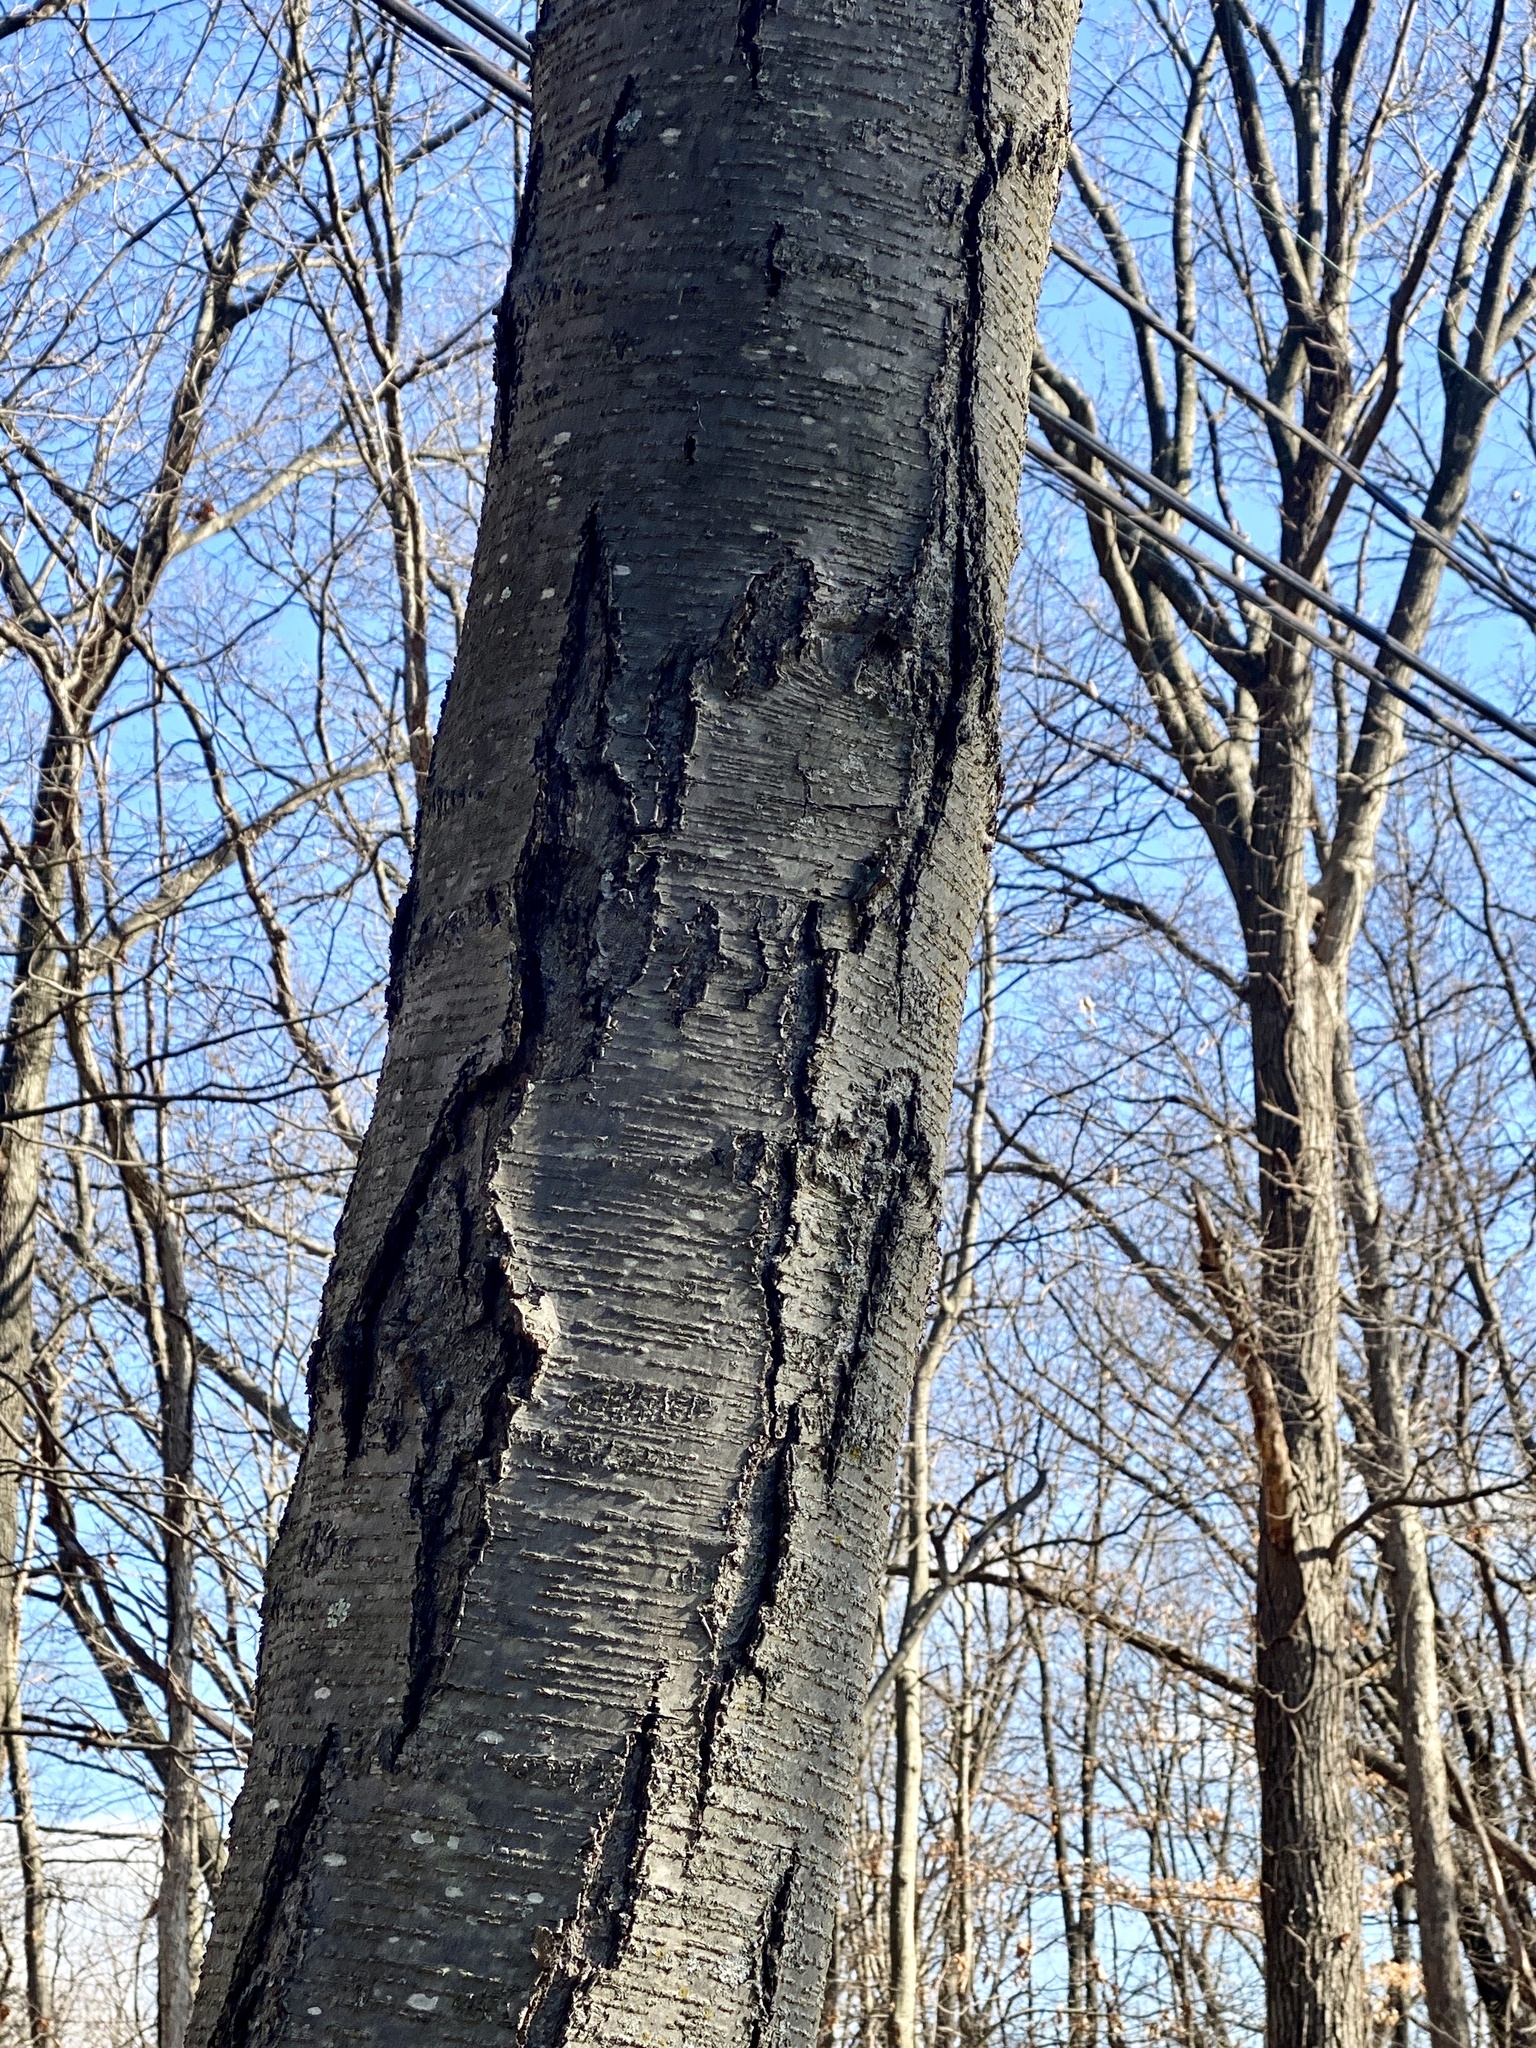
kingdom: Plantae
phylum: Tracheophyta
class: Magnoliopsida
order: Fagales
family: Betulaceae
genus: Betula
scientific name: Betula lenta
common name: Black birch
